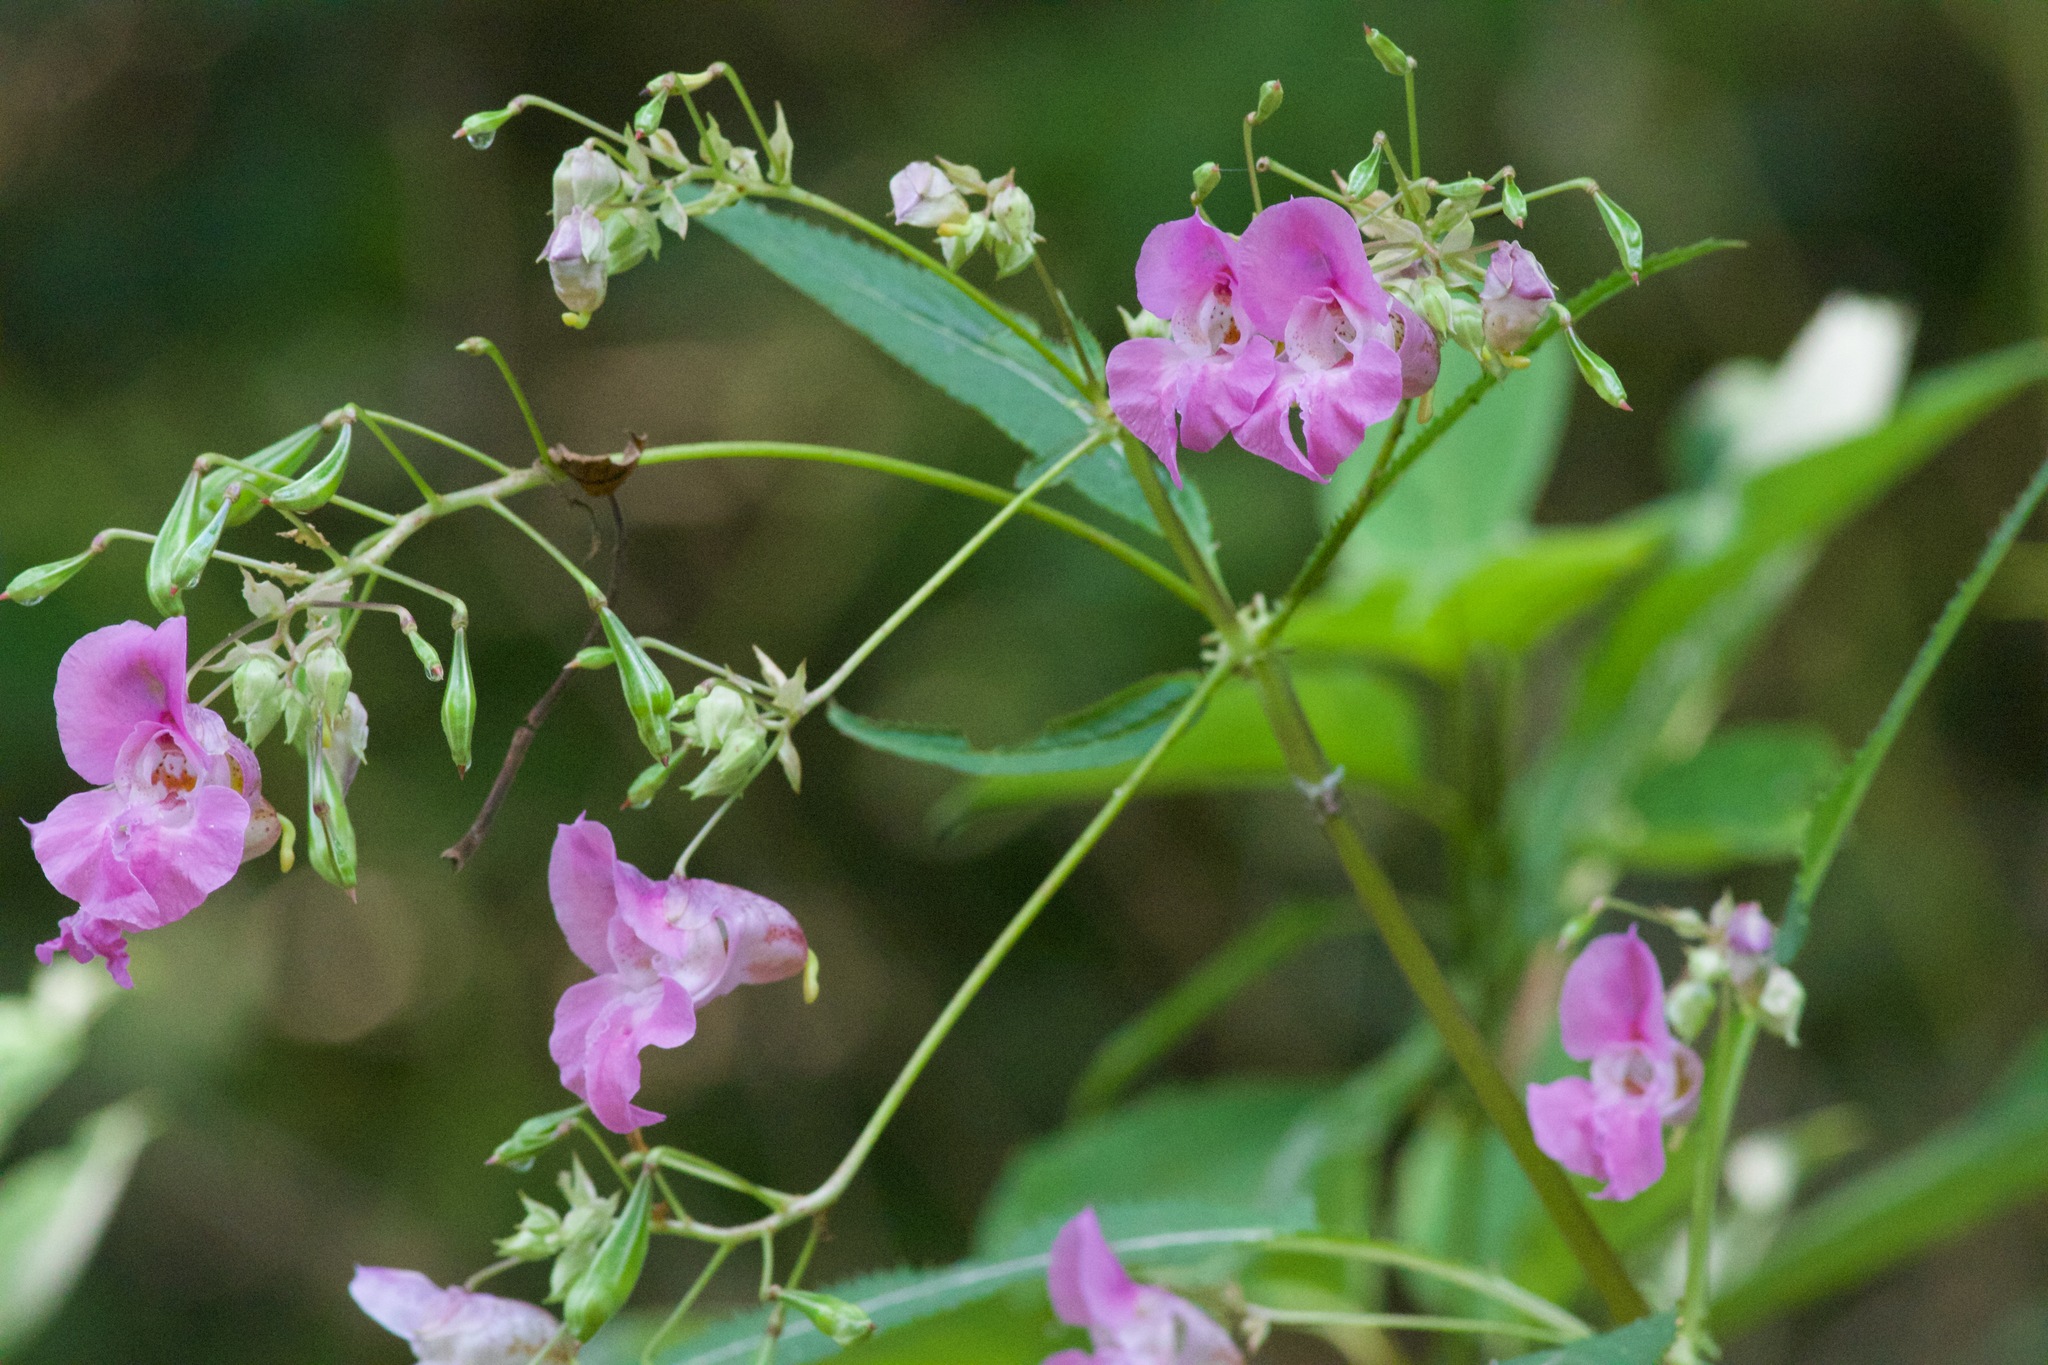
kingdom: Plantae
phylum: Tracheophyta
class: Magnoliopsida
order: Ericales
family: Balsaminaceae
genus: Impatiens
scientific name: Impatiens glandulifera
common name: Himalayan balsam
